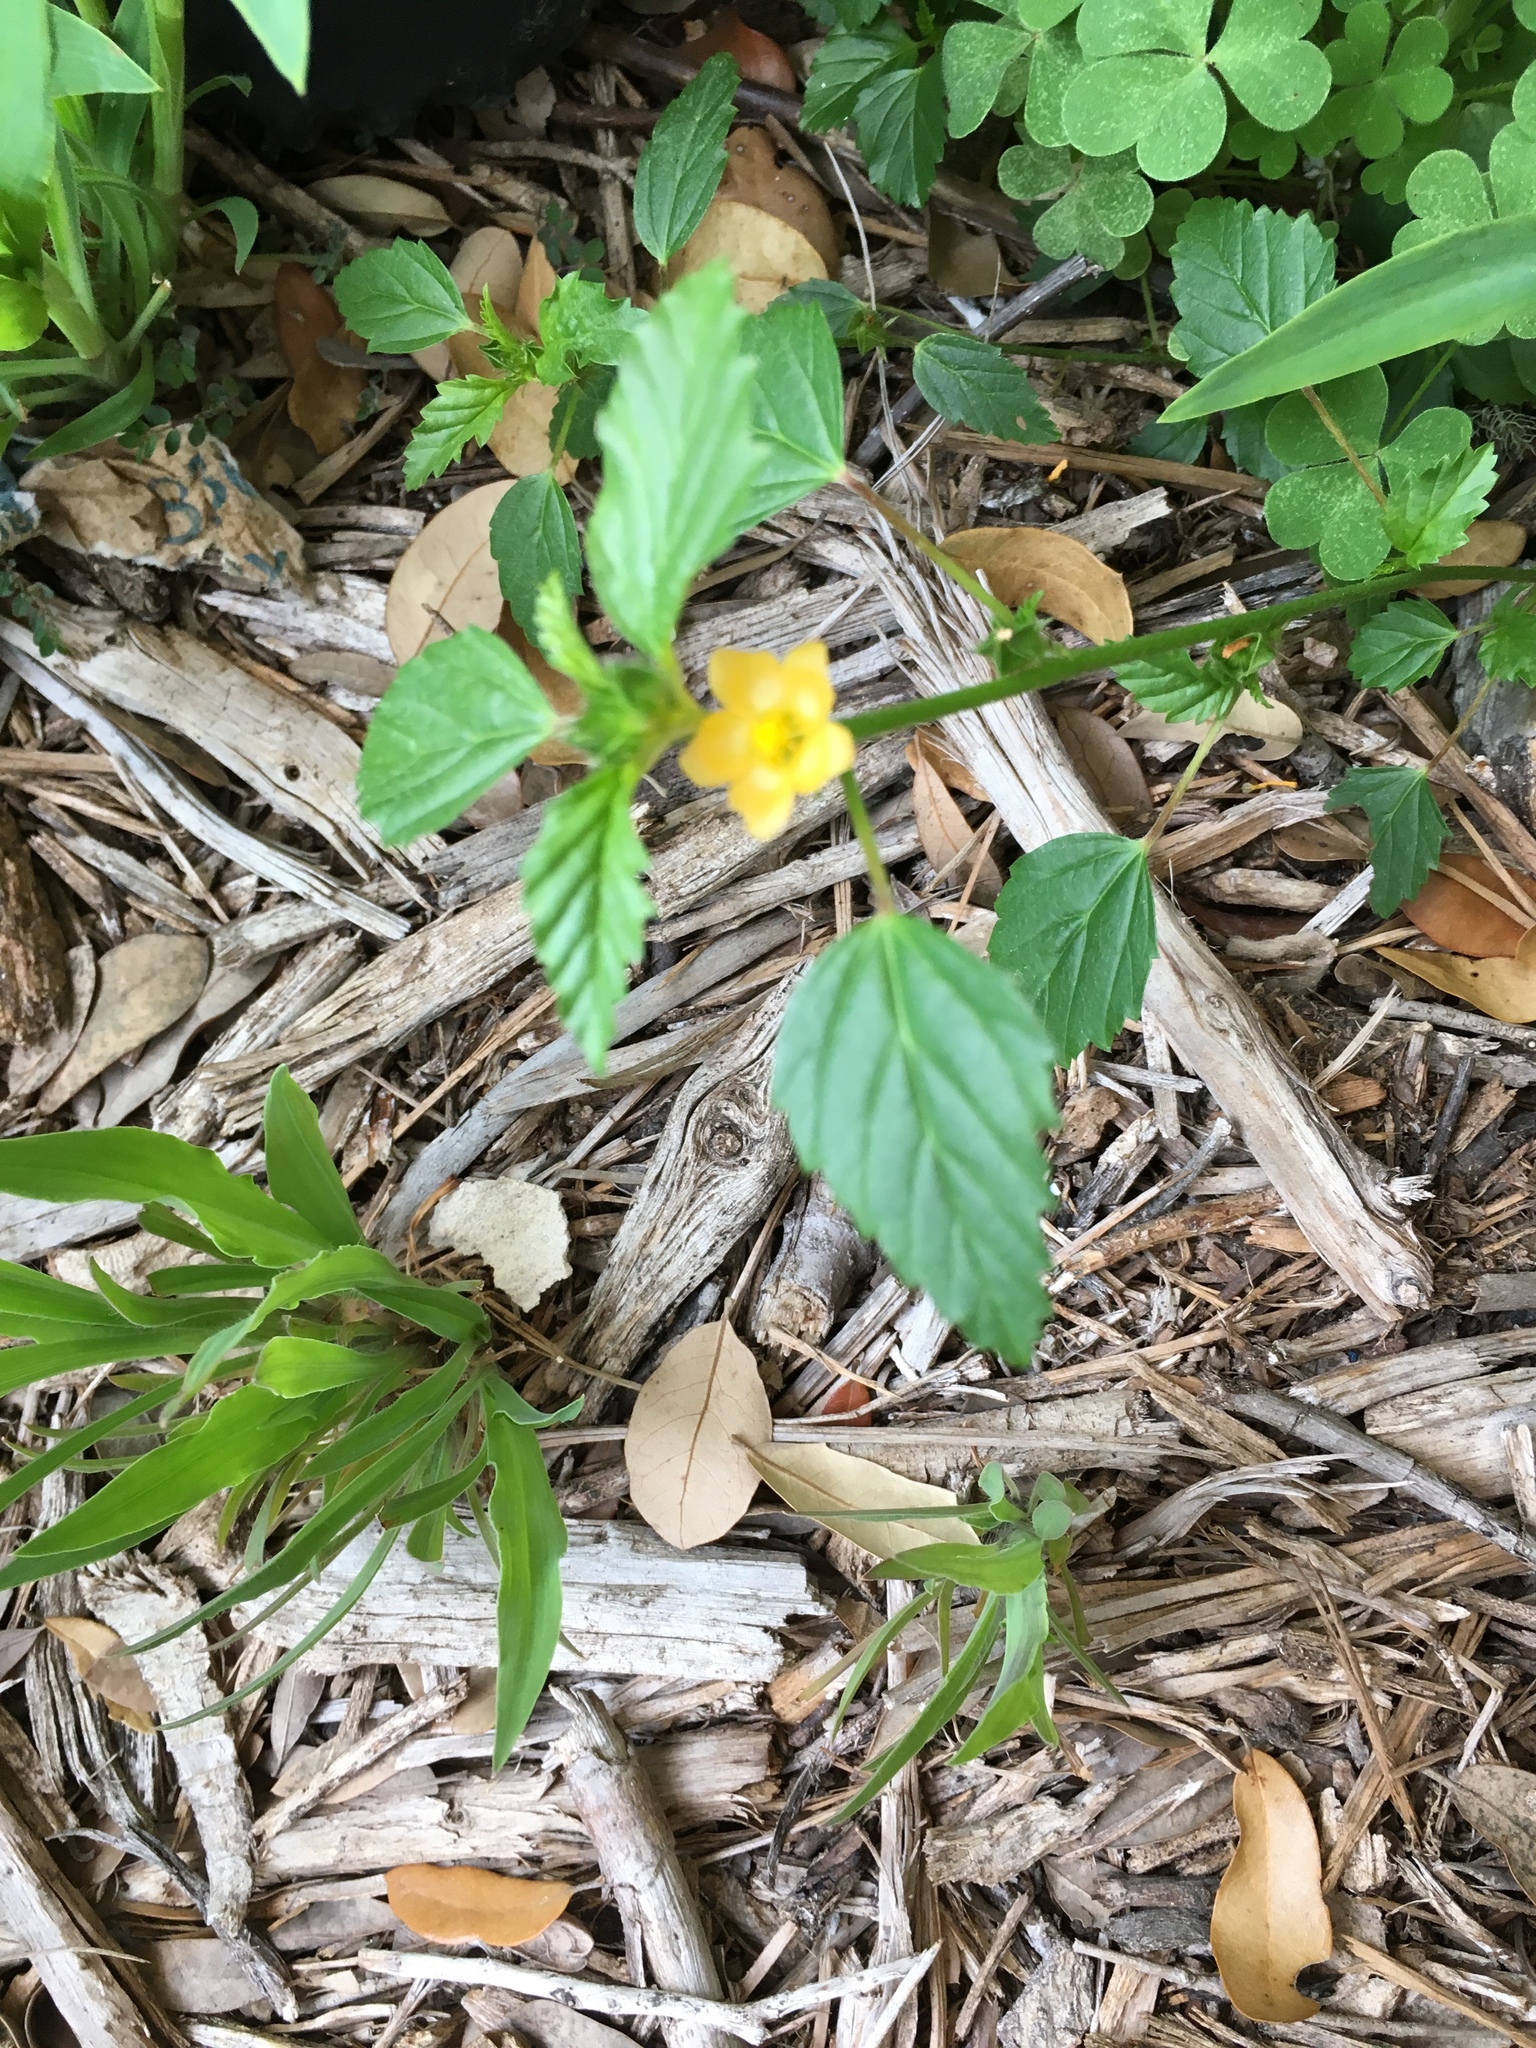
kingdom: Plantae
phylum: Tracheophyta
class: Magnoliopsida
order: Malvales
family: Malvaceae
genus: Malvastrum
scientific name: Malvastrum coromandelianum
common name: Threelobe false mallow
